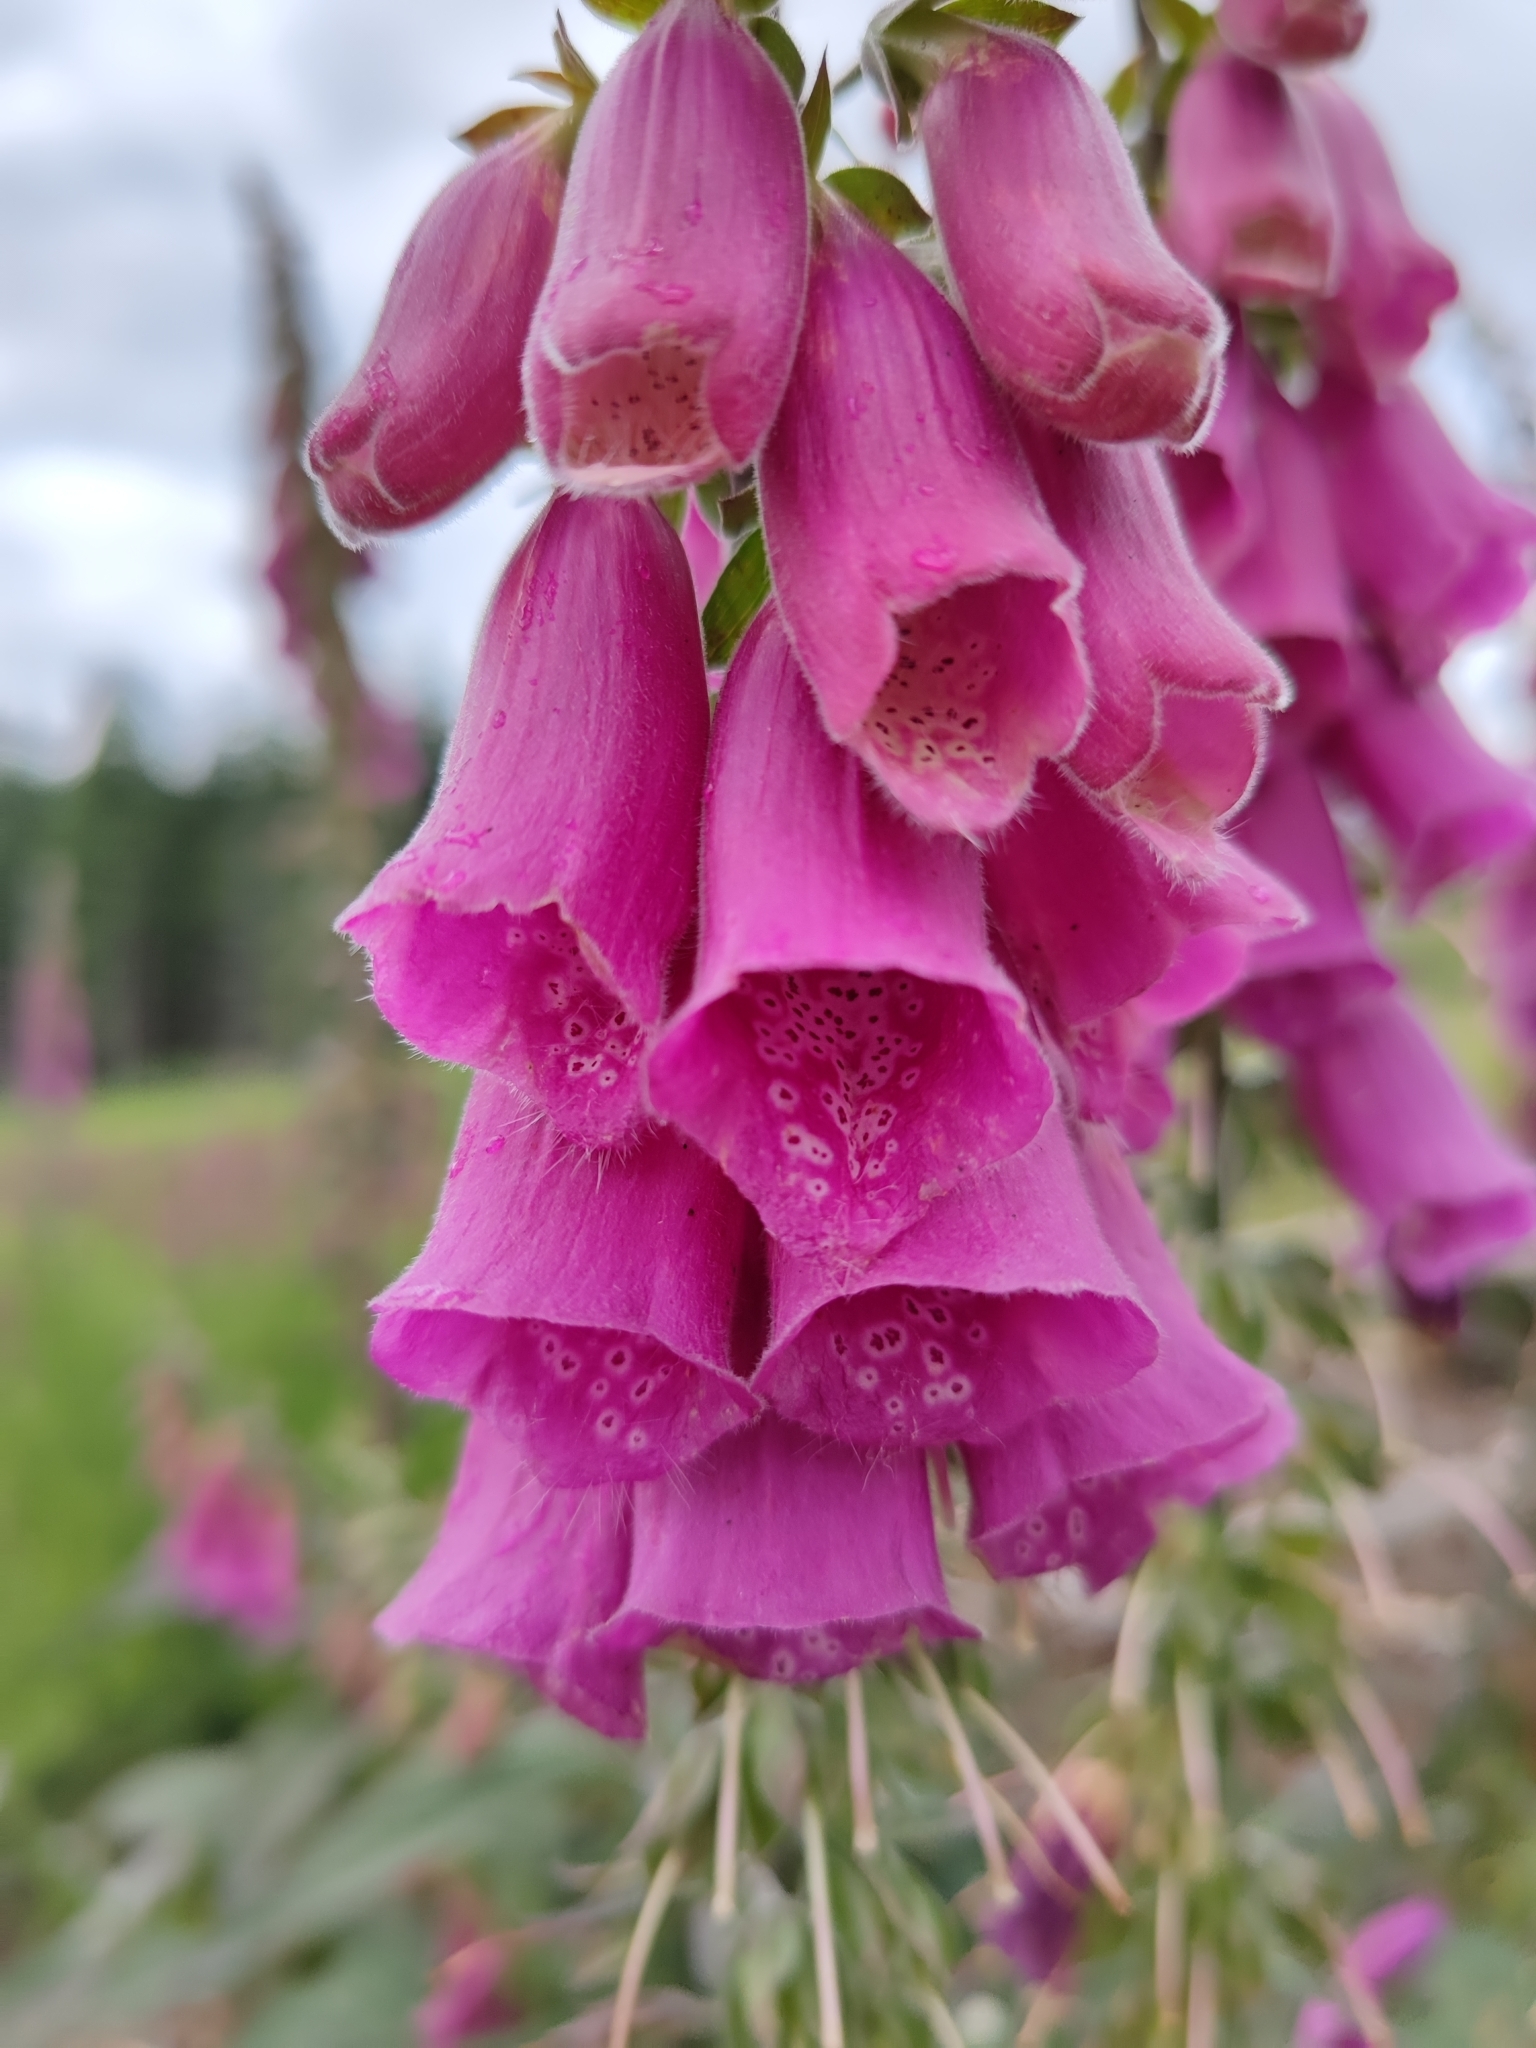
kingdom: Plantae
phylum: Tracheophyta
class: Magnoliopsida
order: Lamiales
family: Plantaginaceae
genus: Digitalis
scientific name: Digitalis purpurea
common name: Foxglove
